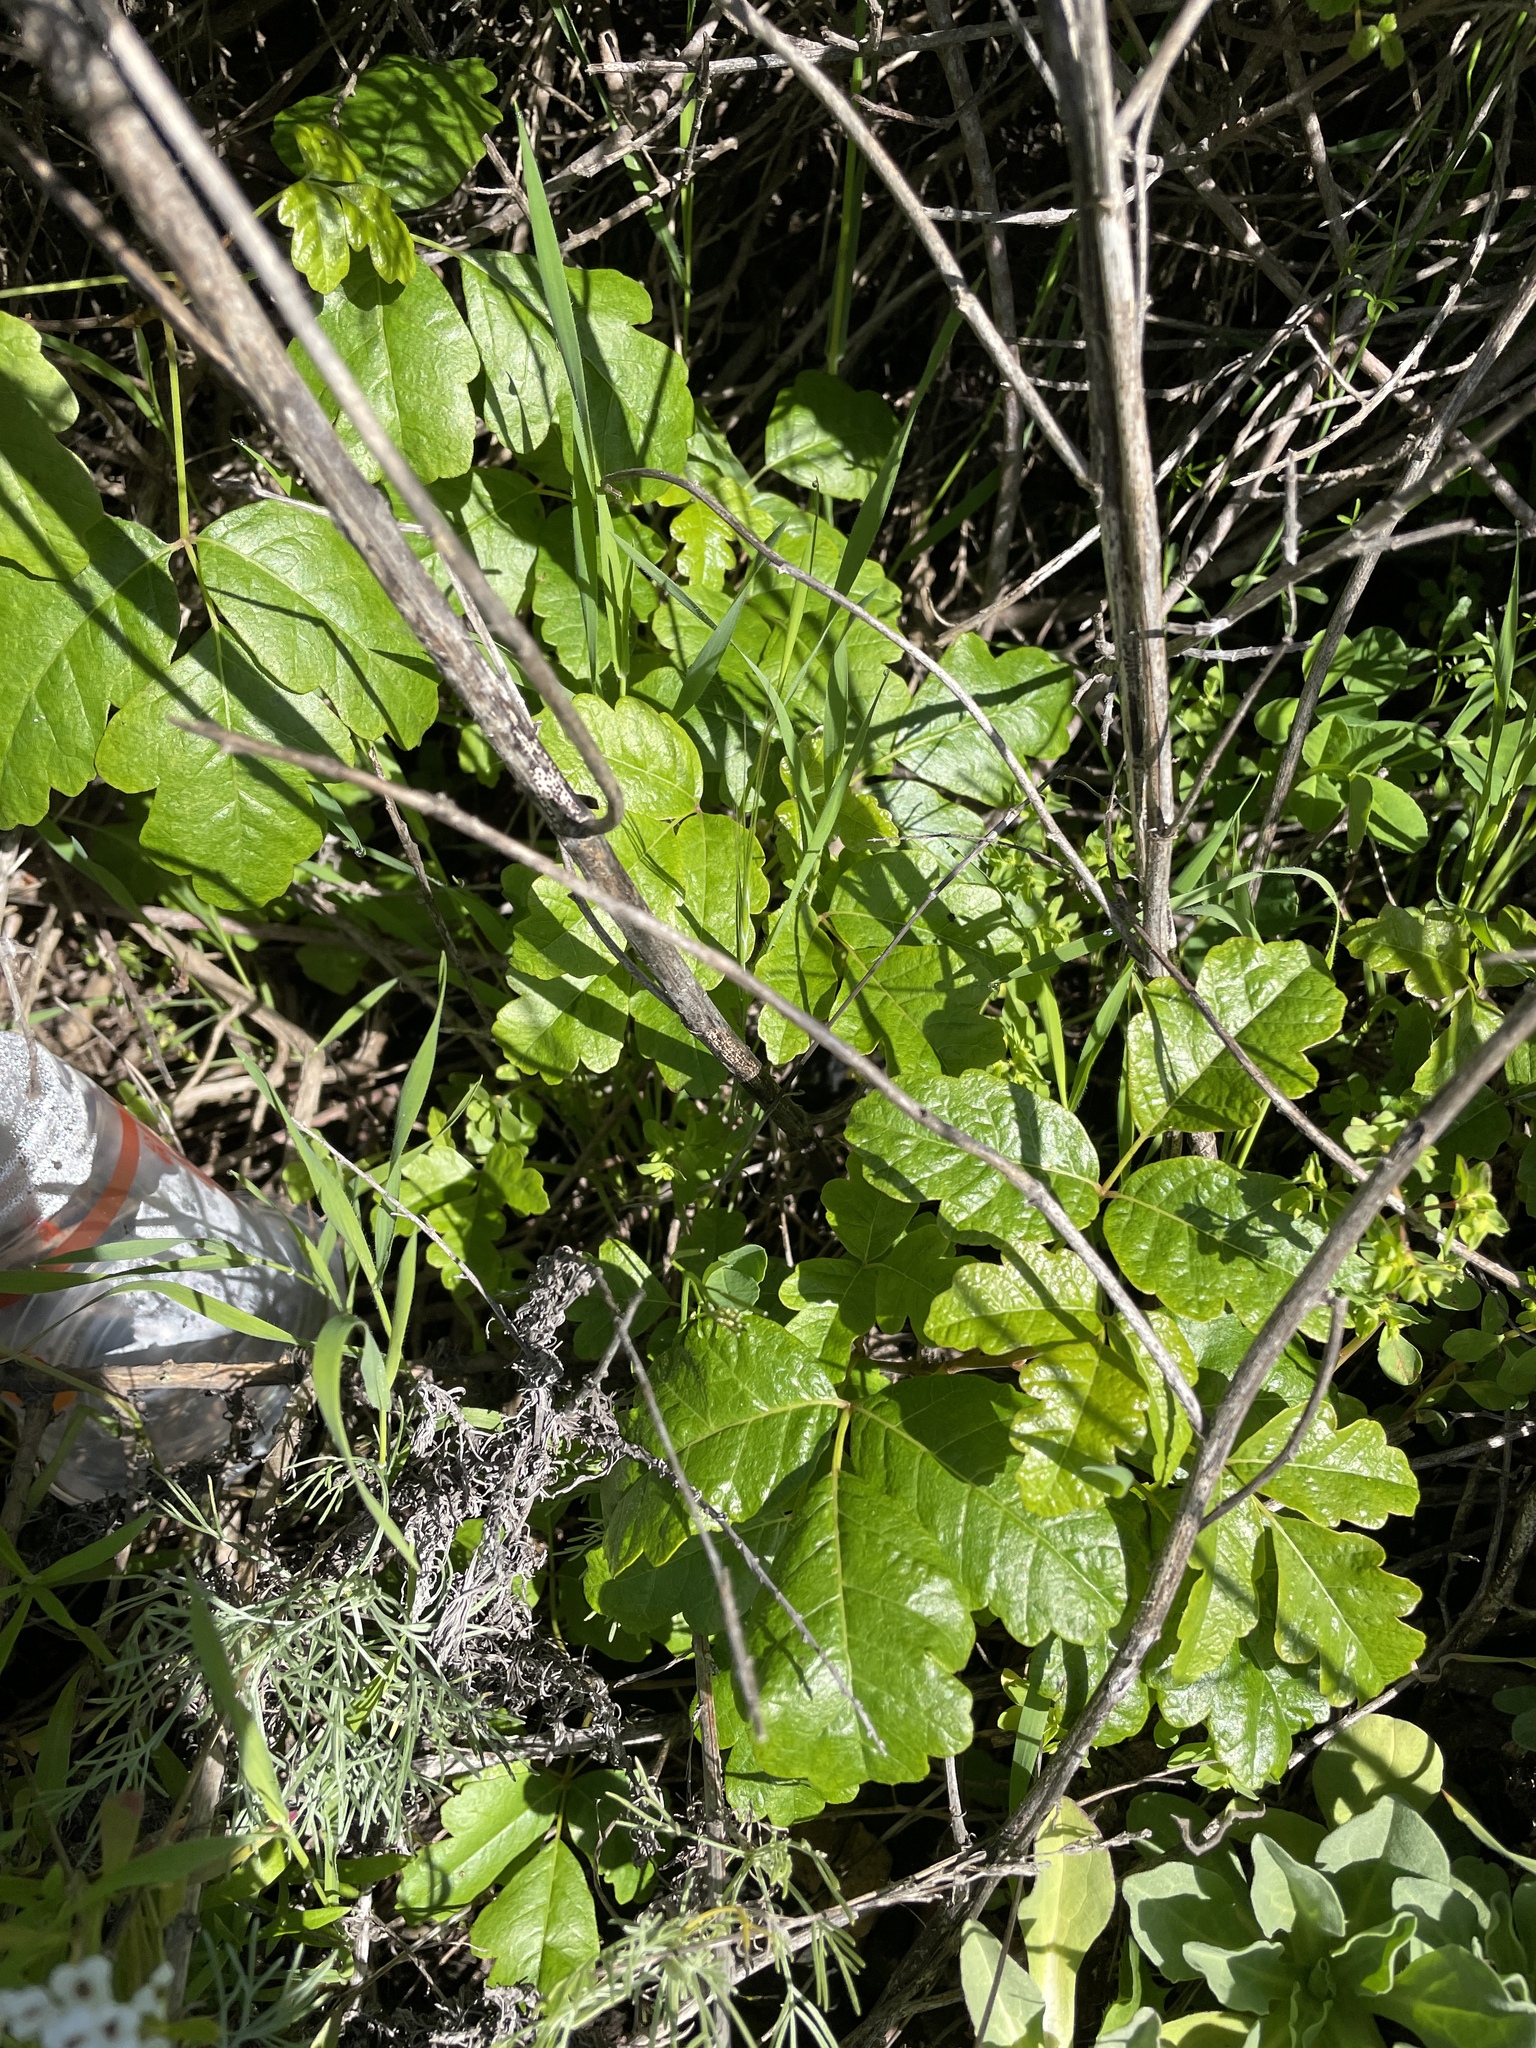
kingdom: Plantae
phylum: Tracheophyta
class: Magnoliopsida
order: Sapindales
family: Anacardiaceae
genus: Toxicodendron
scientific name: Toxicodendron diversilobum
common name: Pacific poison-oak
